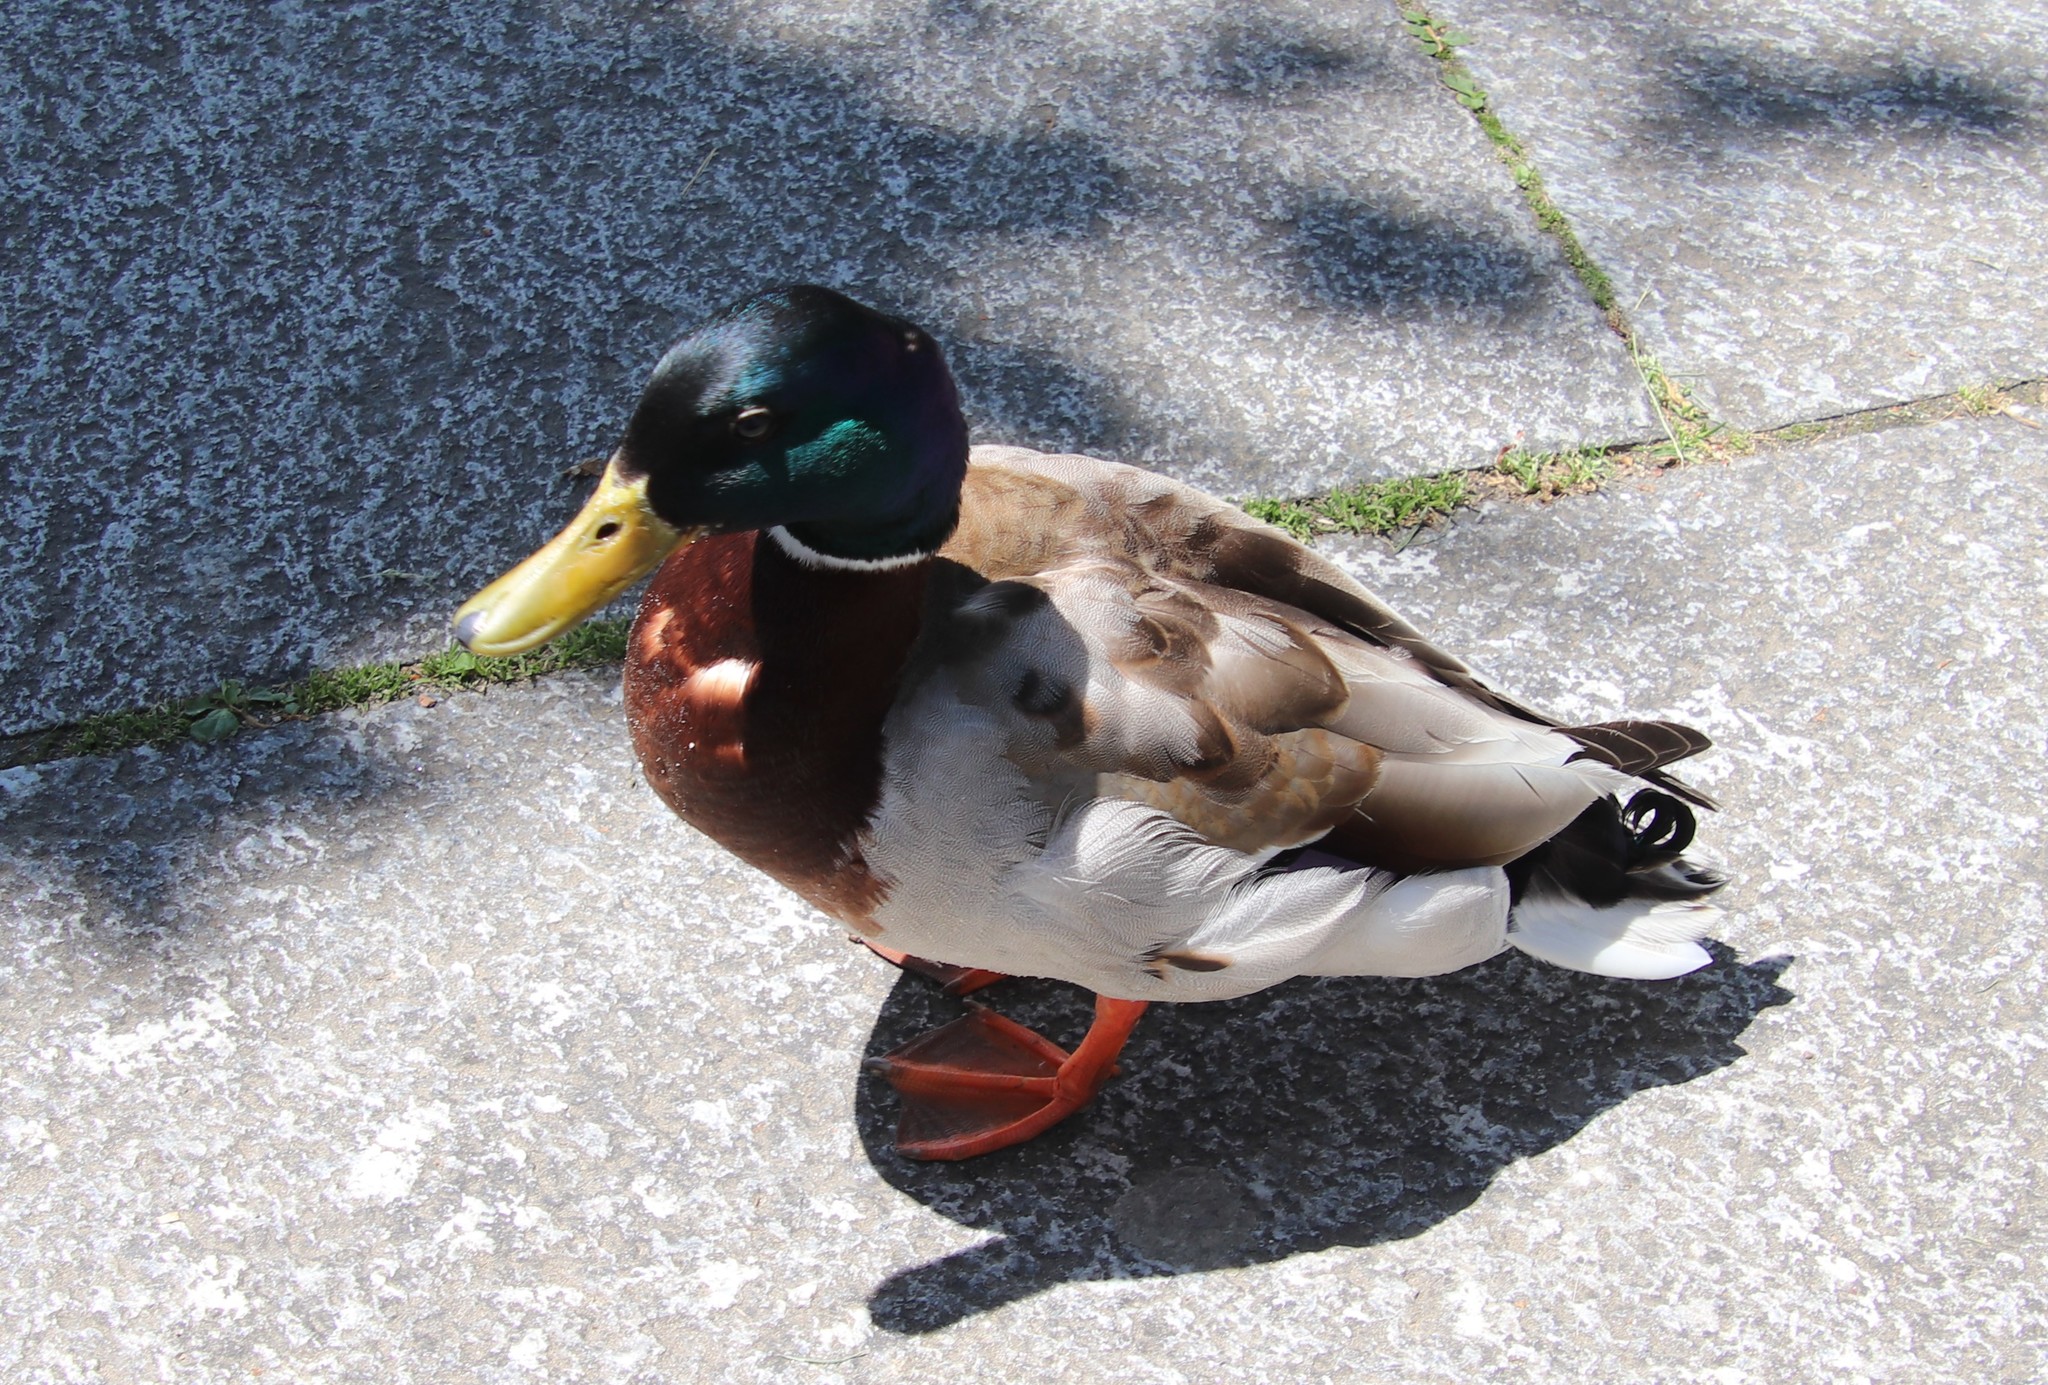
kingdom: Animalia
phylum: Chordata
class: Aves
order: Anseriformes
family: Anatidae
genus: Anas
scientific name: Anas platyrhynchos
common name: Mallard
